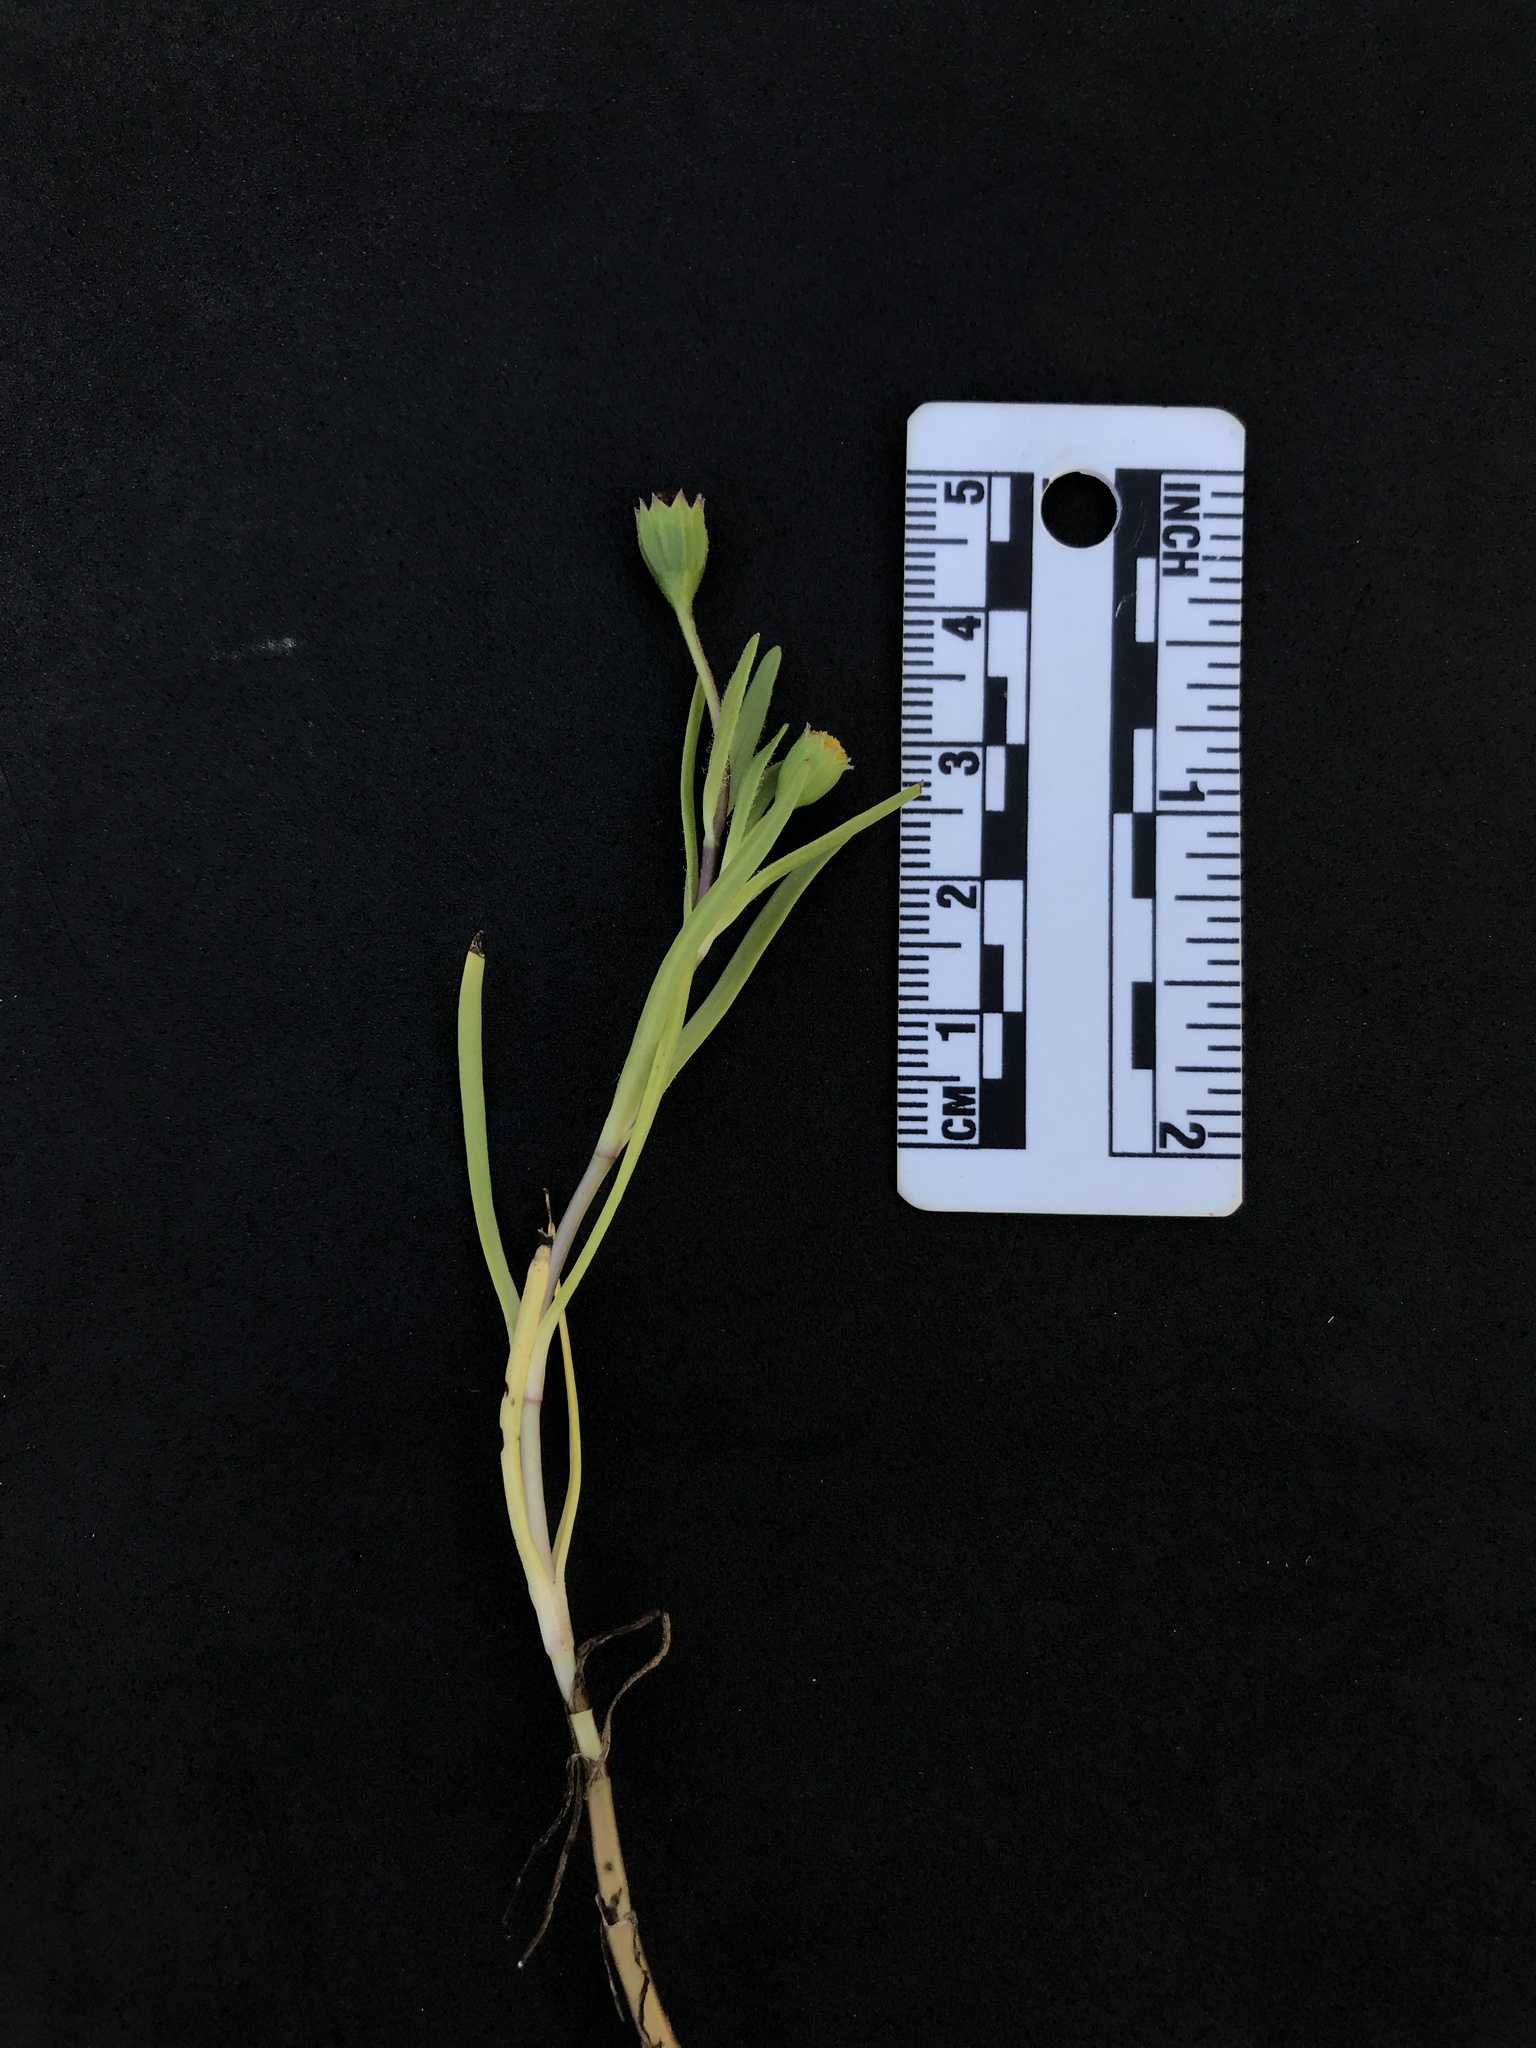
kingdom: Plantae
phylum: Tracheophyta
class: Magnoliopsida
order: Asterales
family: Asteraceae
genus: Lasthenia
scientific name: Lasthenia glaberrima
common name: Smooth goldfields
